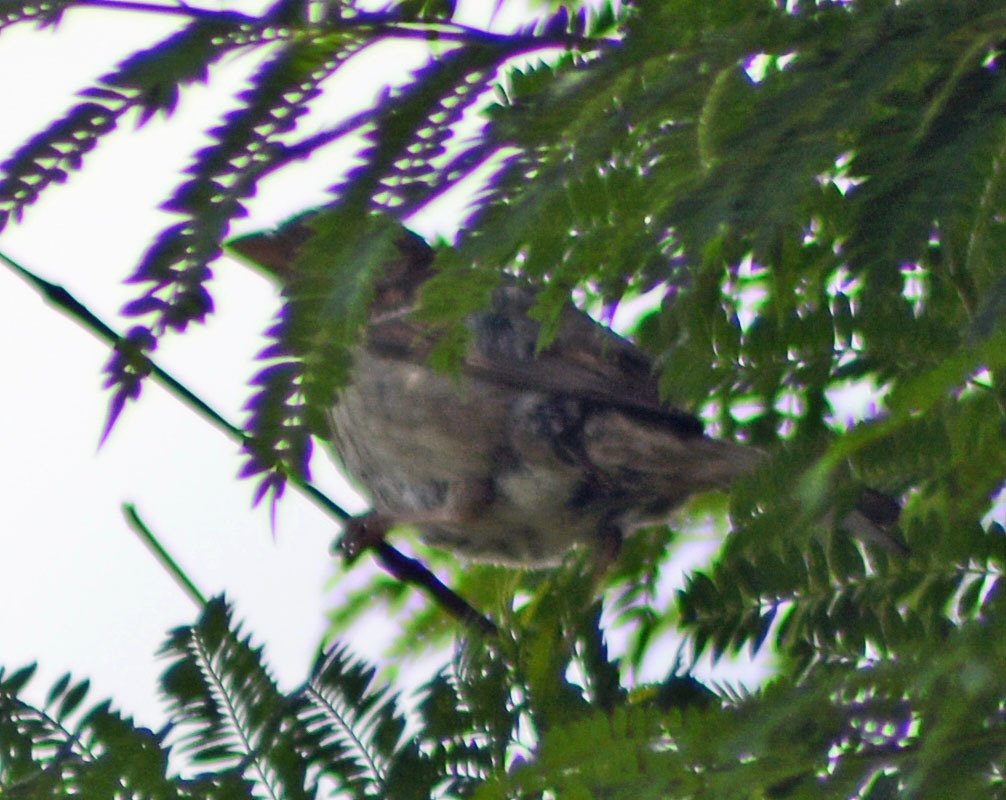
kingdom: Animalia
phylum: Chordata
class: Aves
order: Passeriformes
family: Passeridae
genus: Passer
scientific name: Passer domesticus
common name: House sparrow
